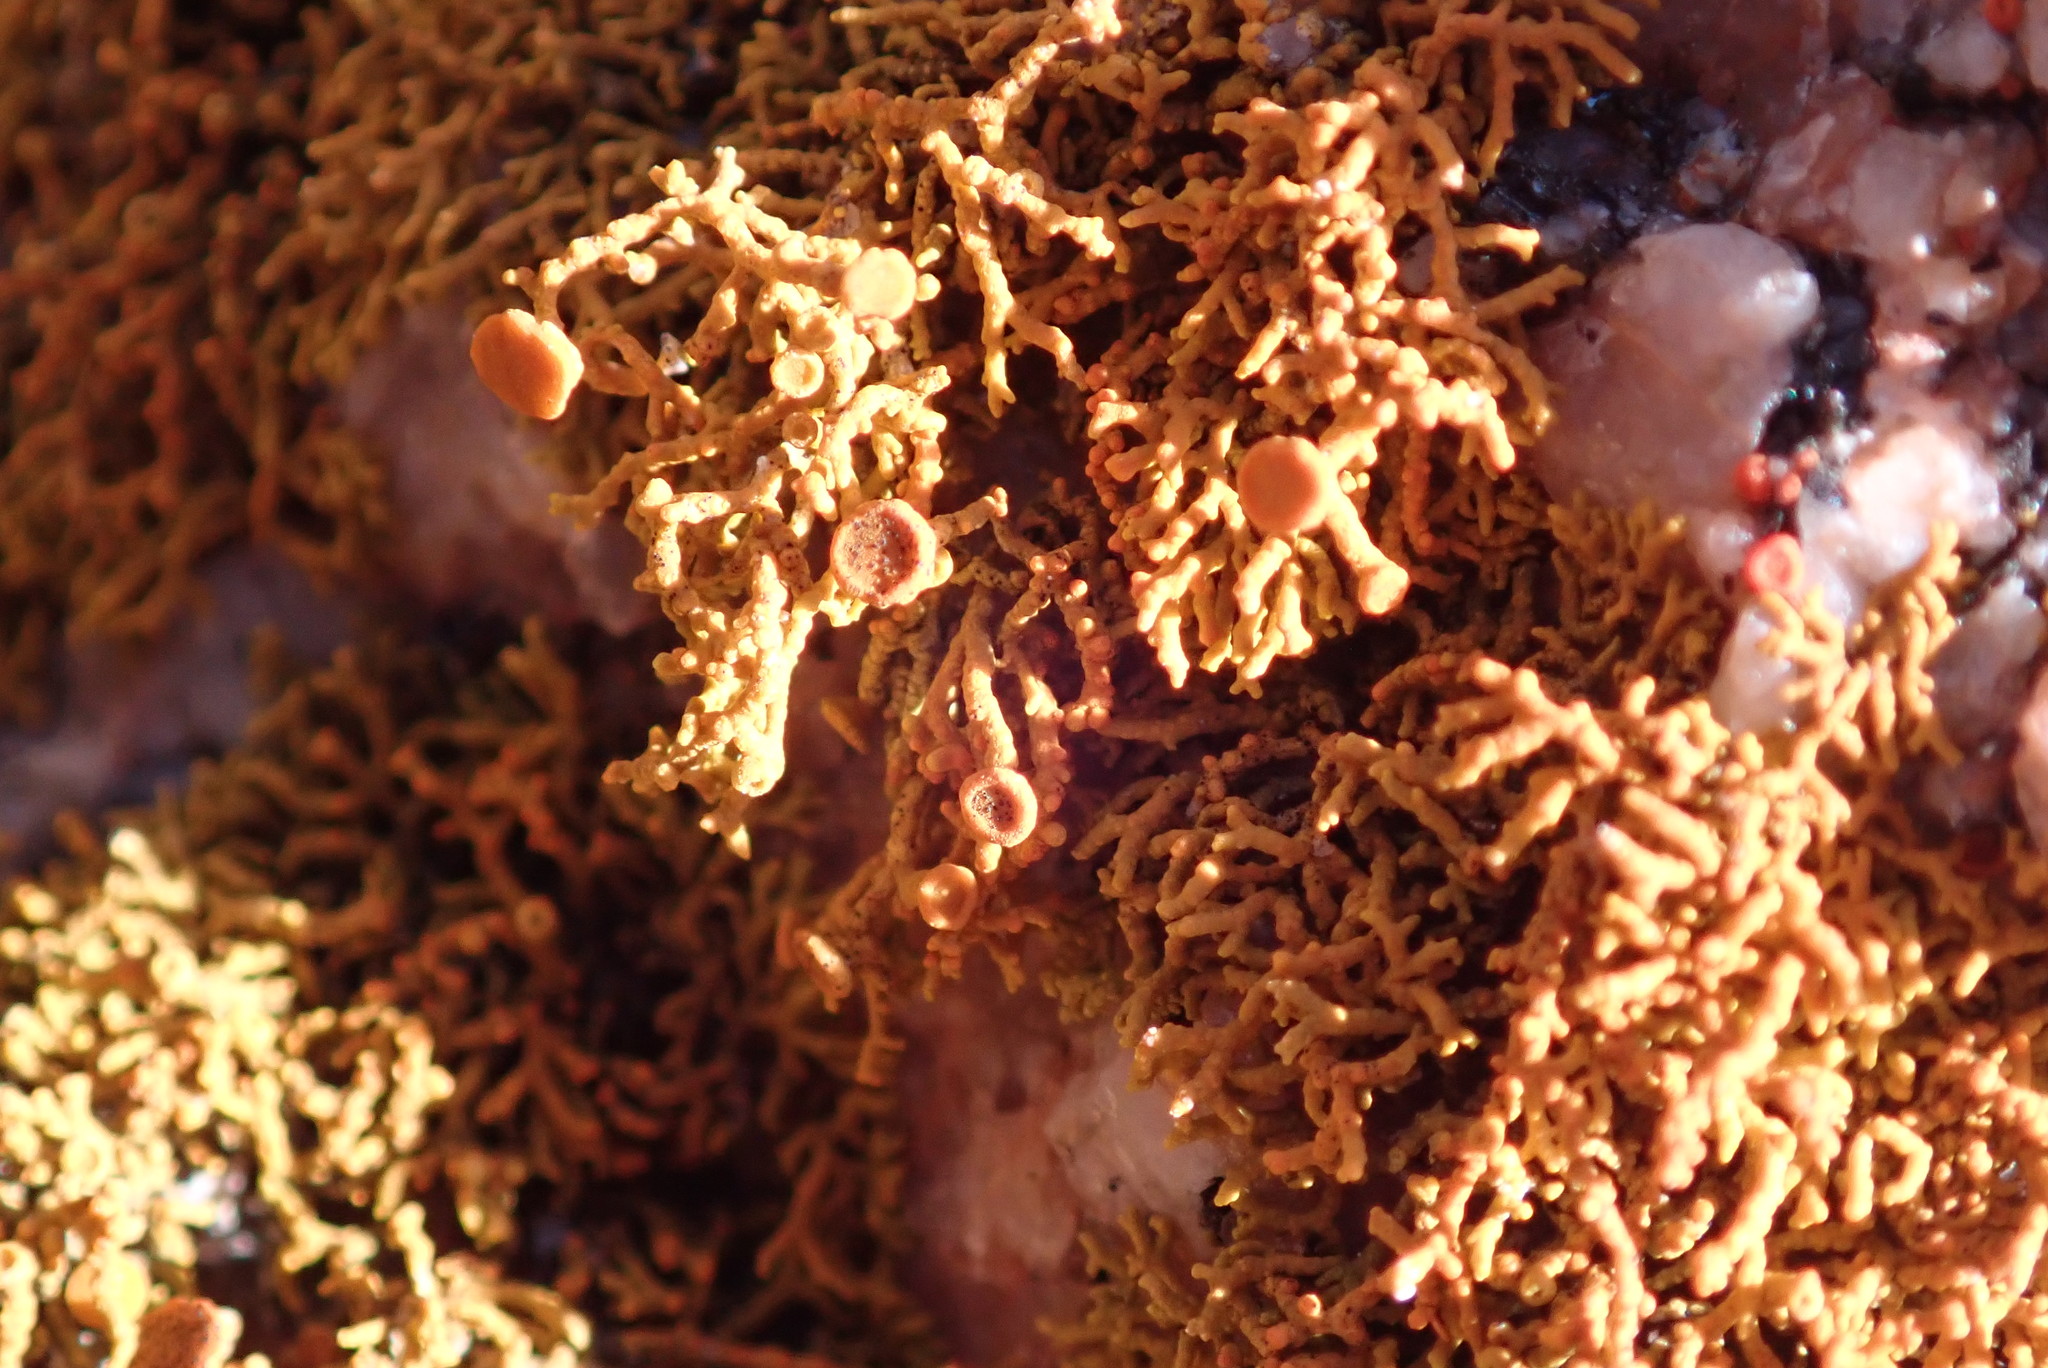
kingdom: Fungi
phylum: Ascomycota
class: Lecanoromycetes
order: Teloschistales
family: Teloschistaceae
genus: Polycauliona
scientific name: Polycauliona coralloides
